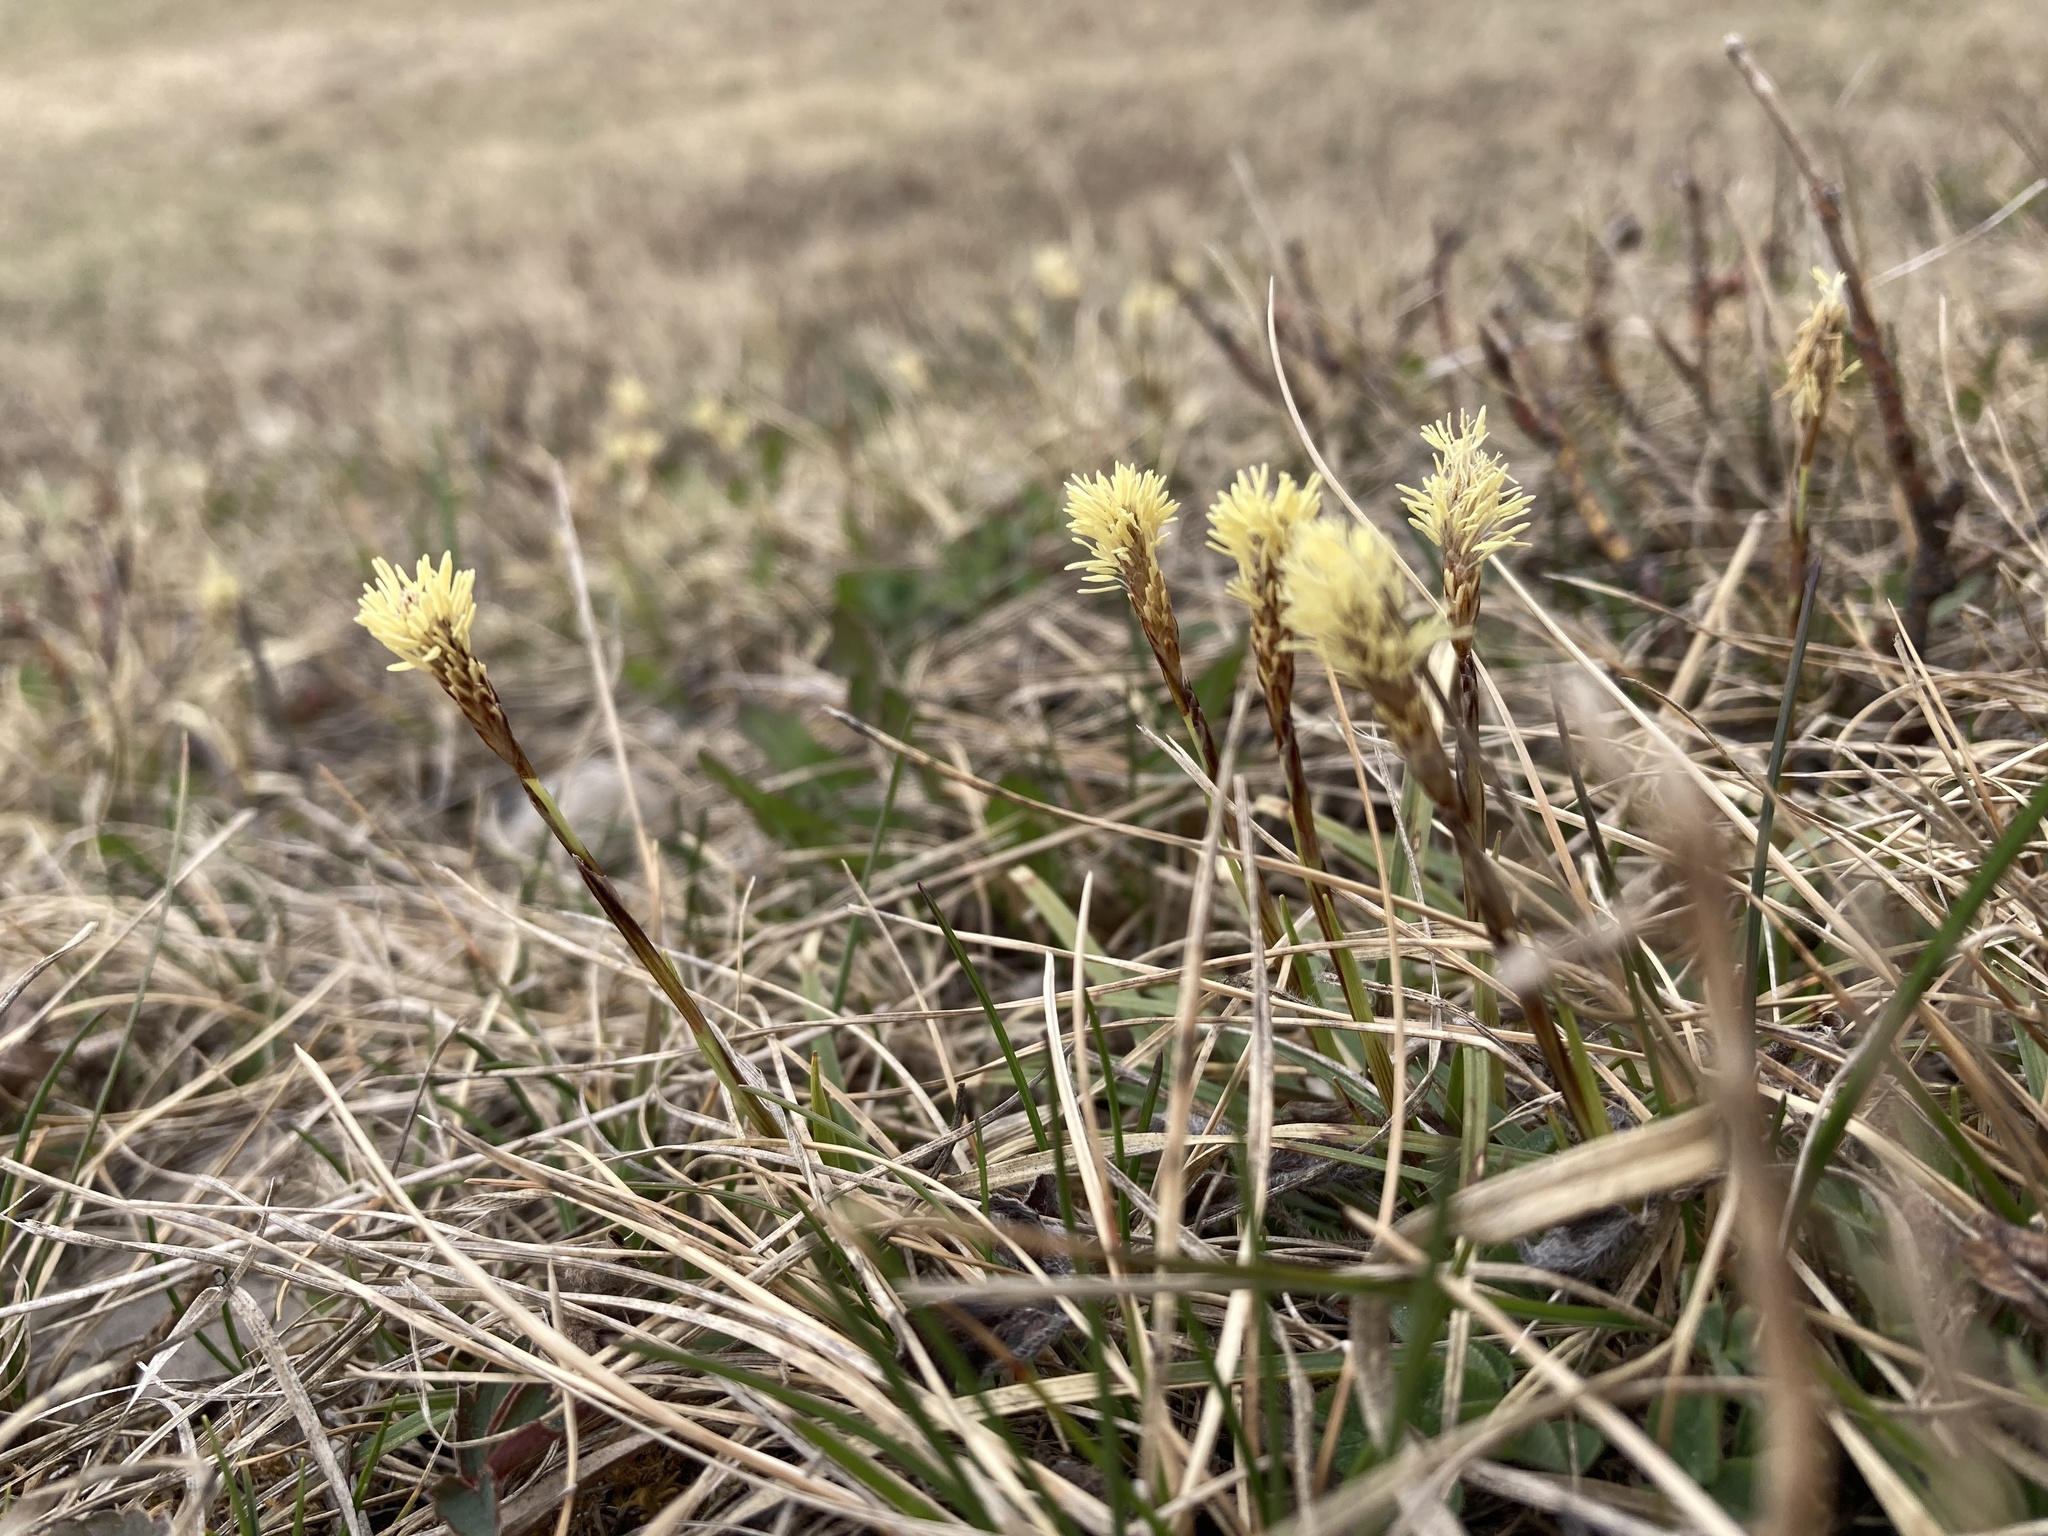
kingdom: Plantae
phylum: Tracheophyta
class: Liliopsida
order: Poales
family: Cyperaceae
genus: Carex
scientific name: Carex inops
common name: Long-stolon sedge
